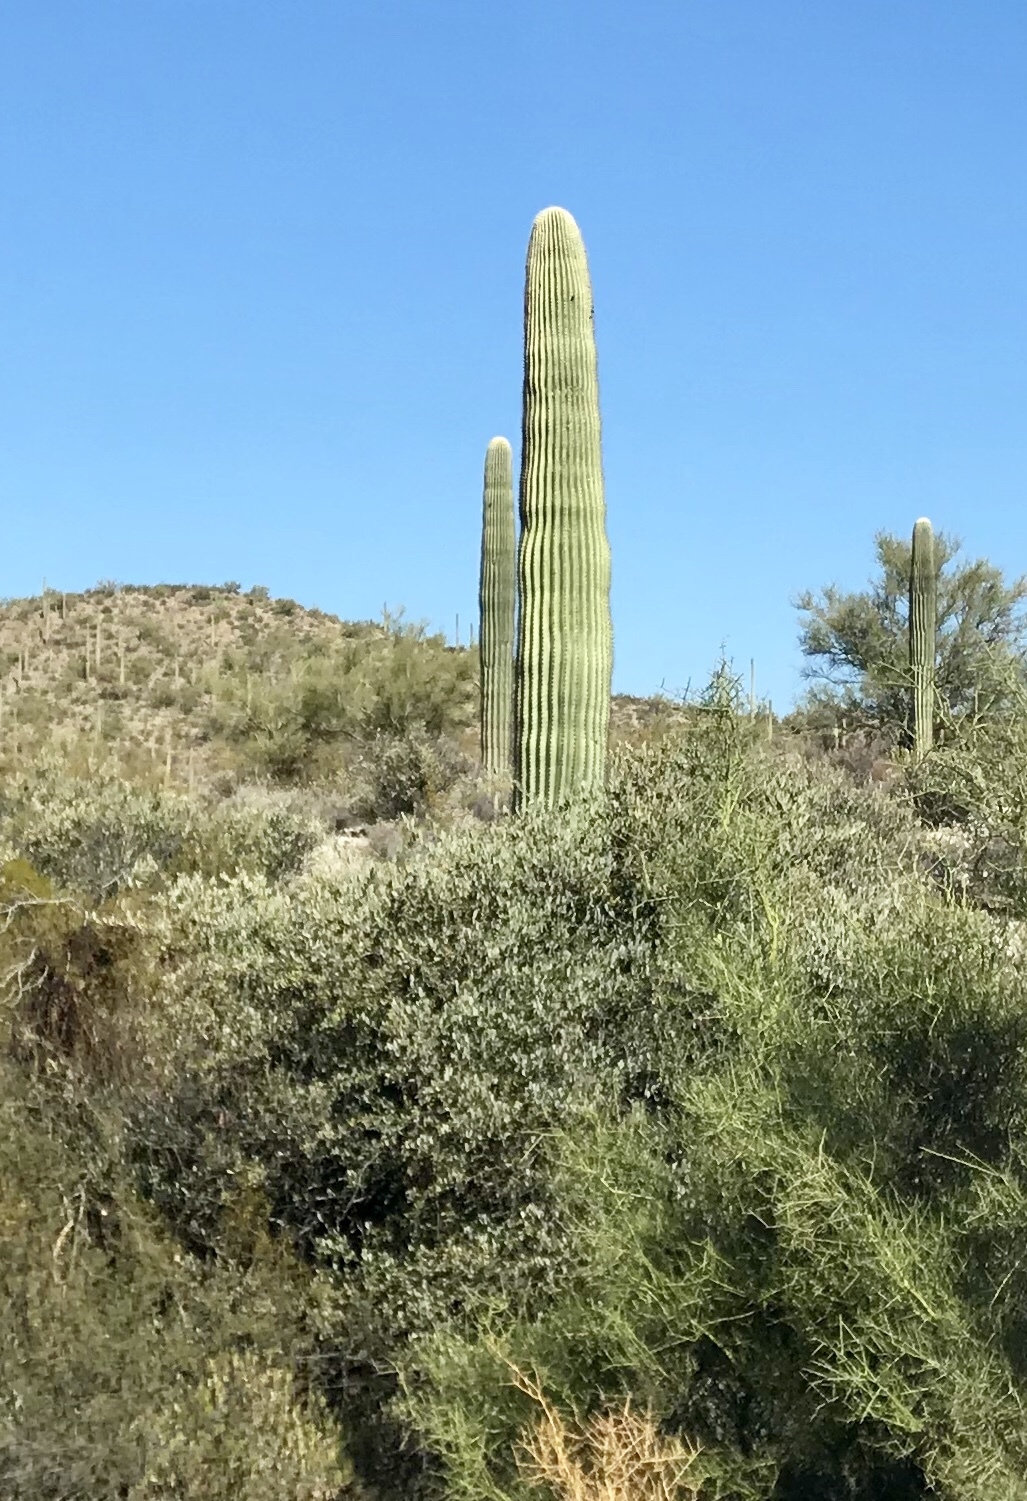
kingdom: Plantae
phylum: Tracheophyta
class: Magnoliopsida
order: Caryophyllales
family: Cactaceae
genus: Carnegiea
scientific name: Carnegiea gigantea
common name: Saguaro
